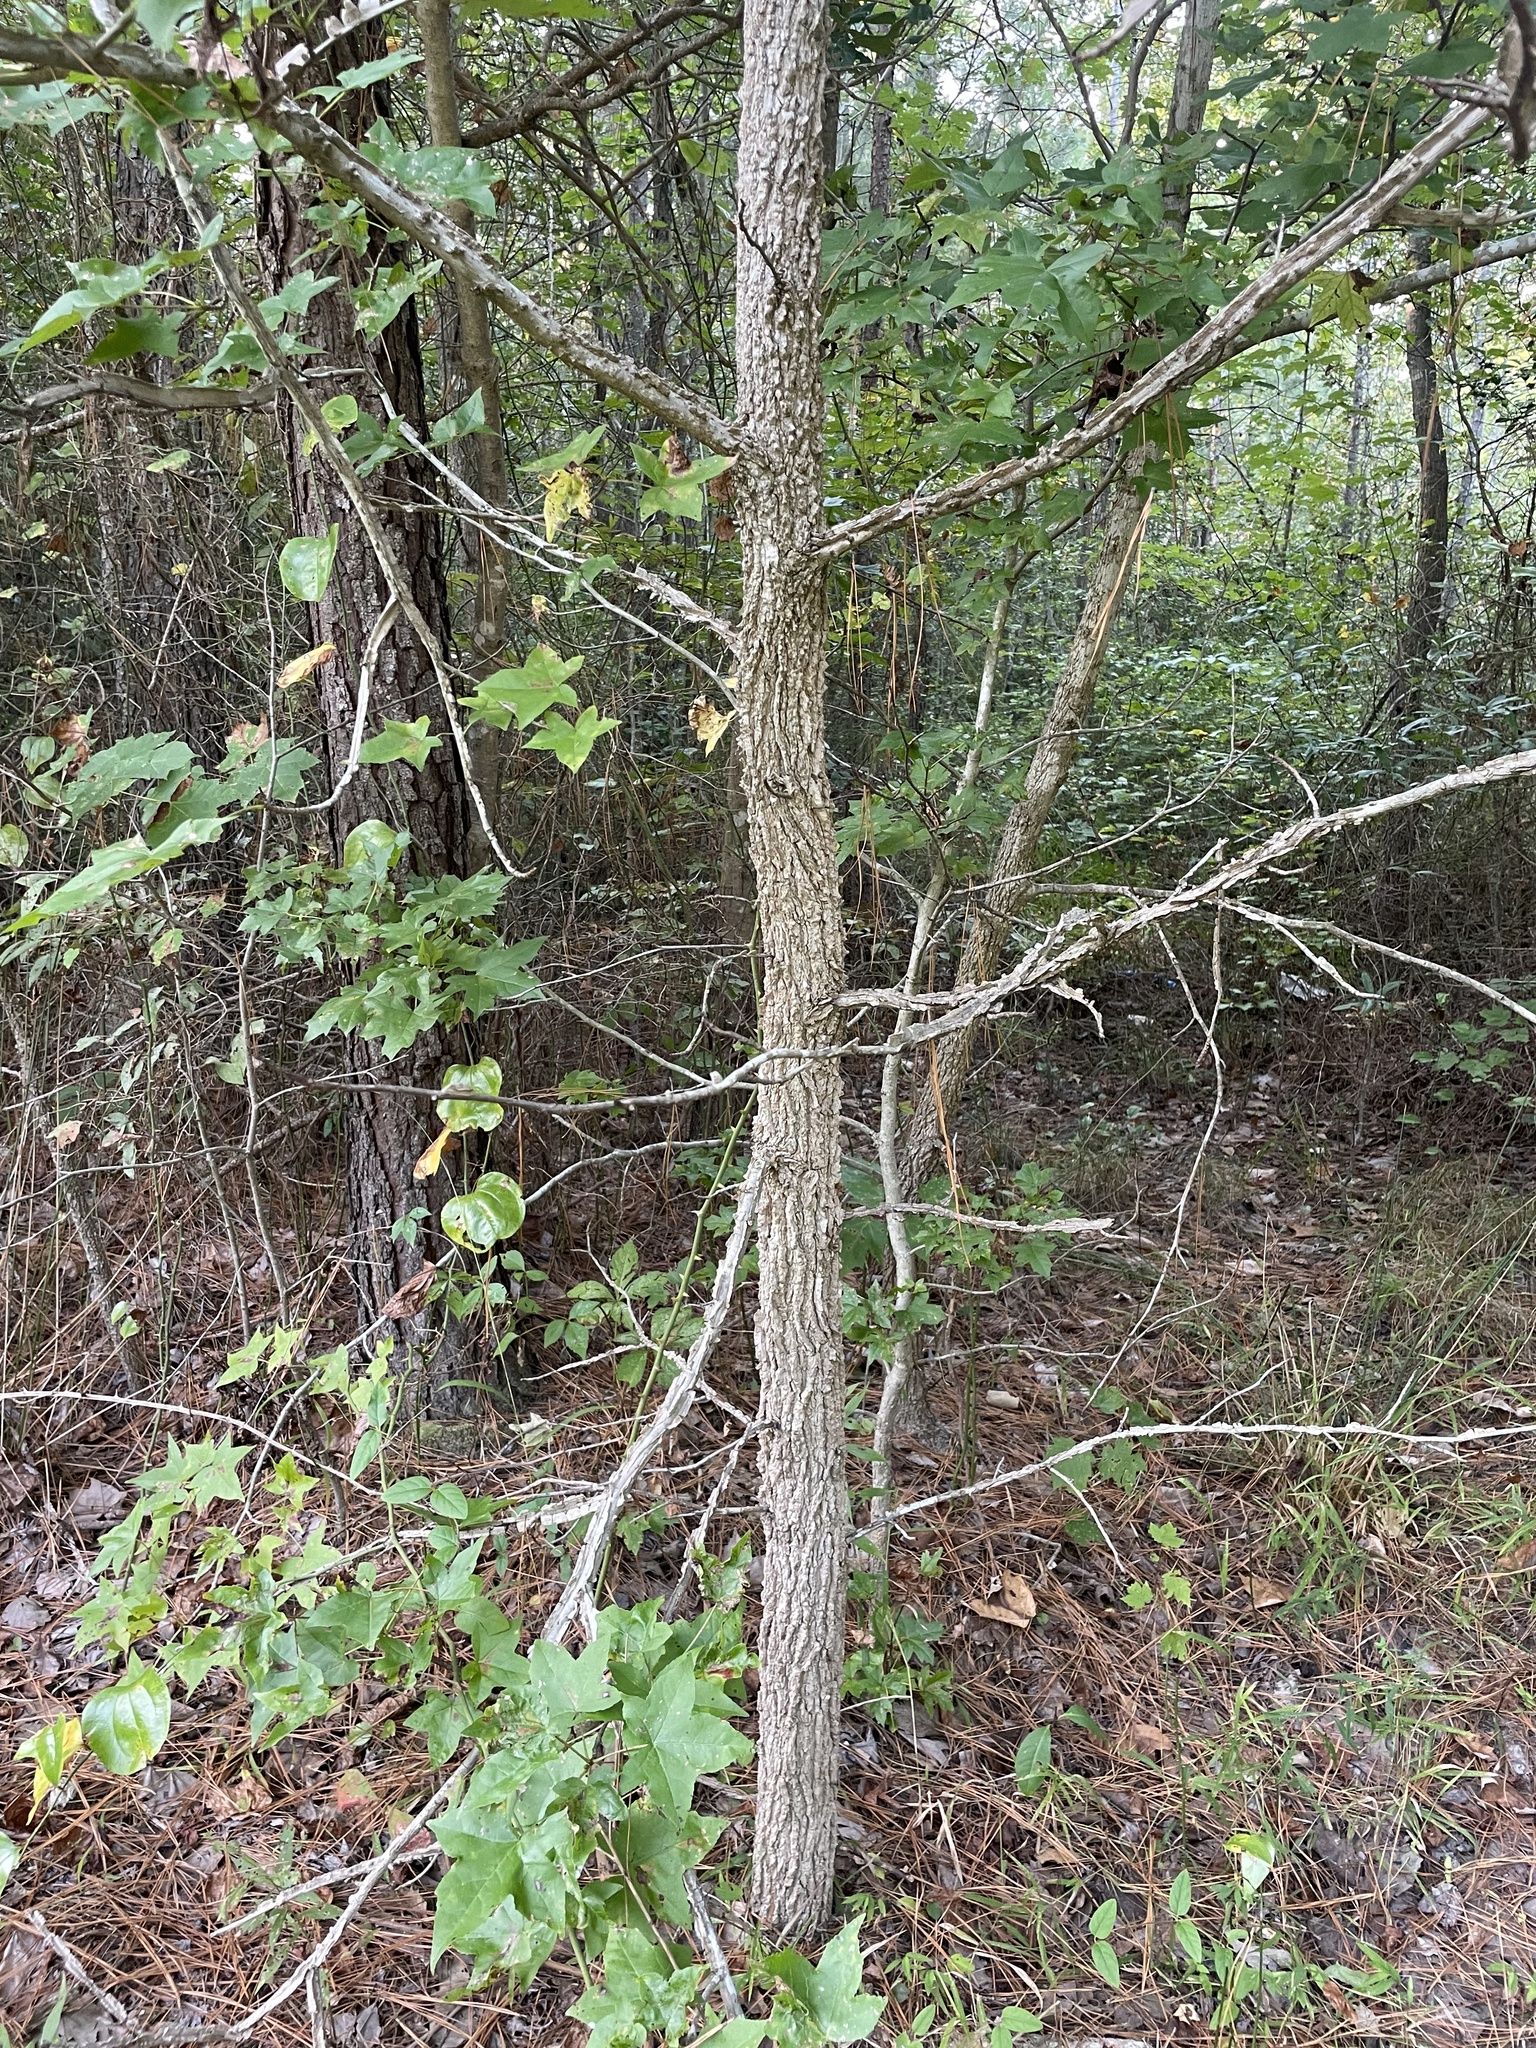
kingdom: Plantae
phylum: Tracheophyta
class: Magnoliopsida
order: Saxifragales
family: Altingiaceae
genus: Liquidambar
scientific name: Liquidambar styraciflua
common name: Sweet gum
